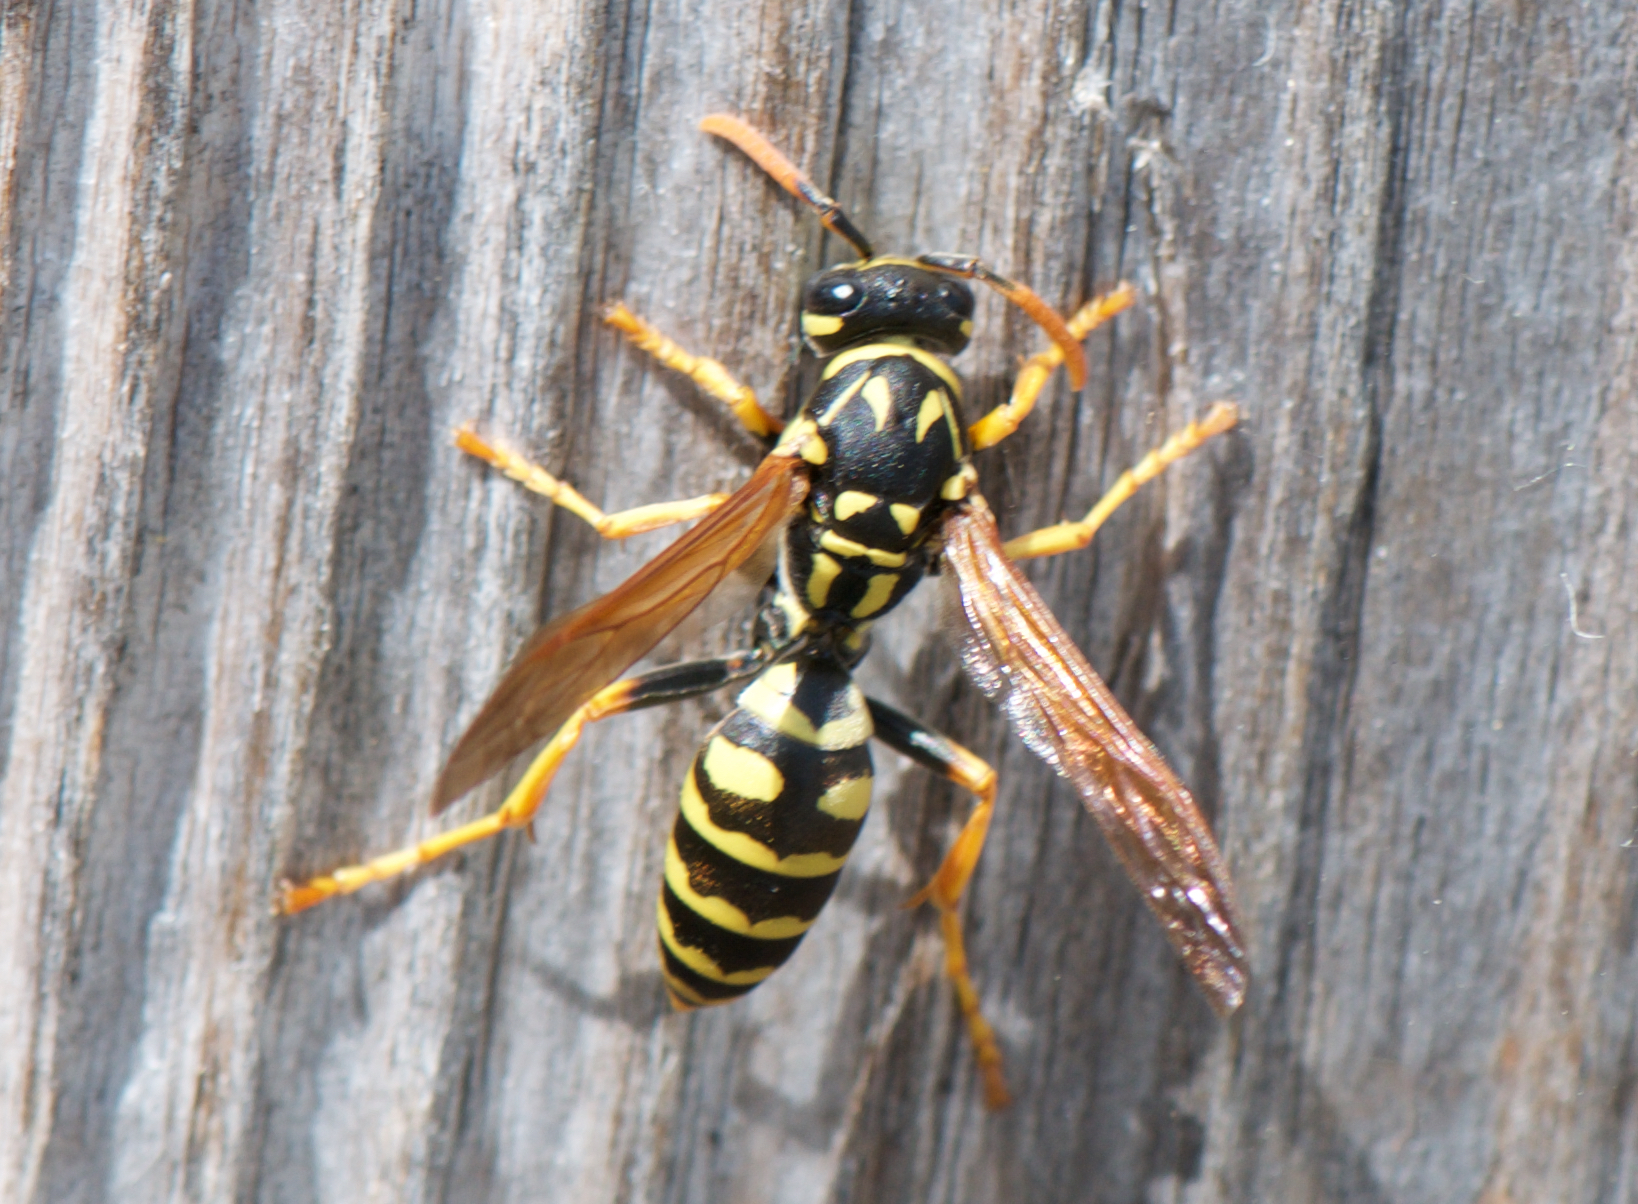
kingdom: Animalia
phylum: Arthropoda
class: Insecta
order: Hymenoptera
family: Eumenidae
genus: Polistes
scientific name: Polistes dominula
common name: Paper wasp
